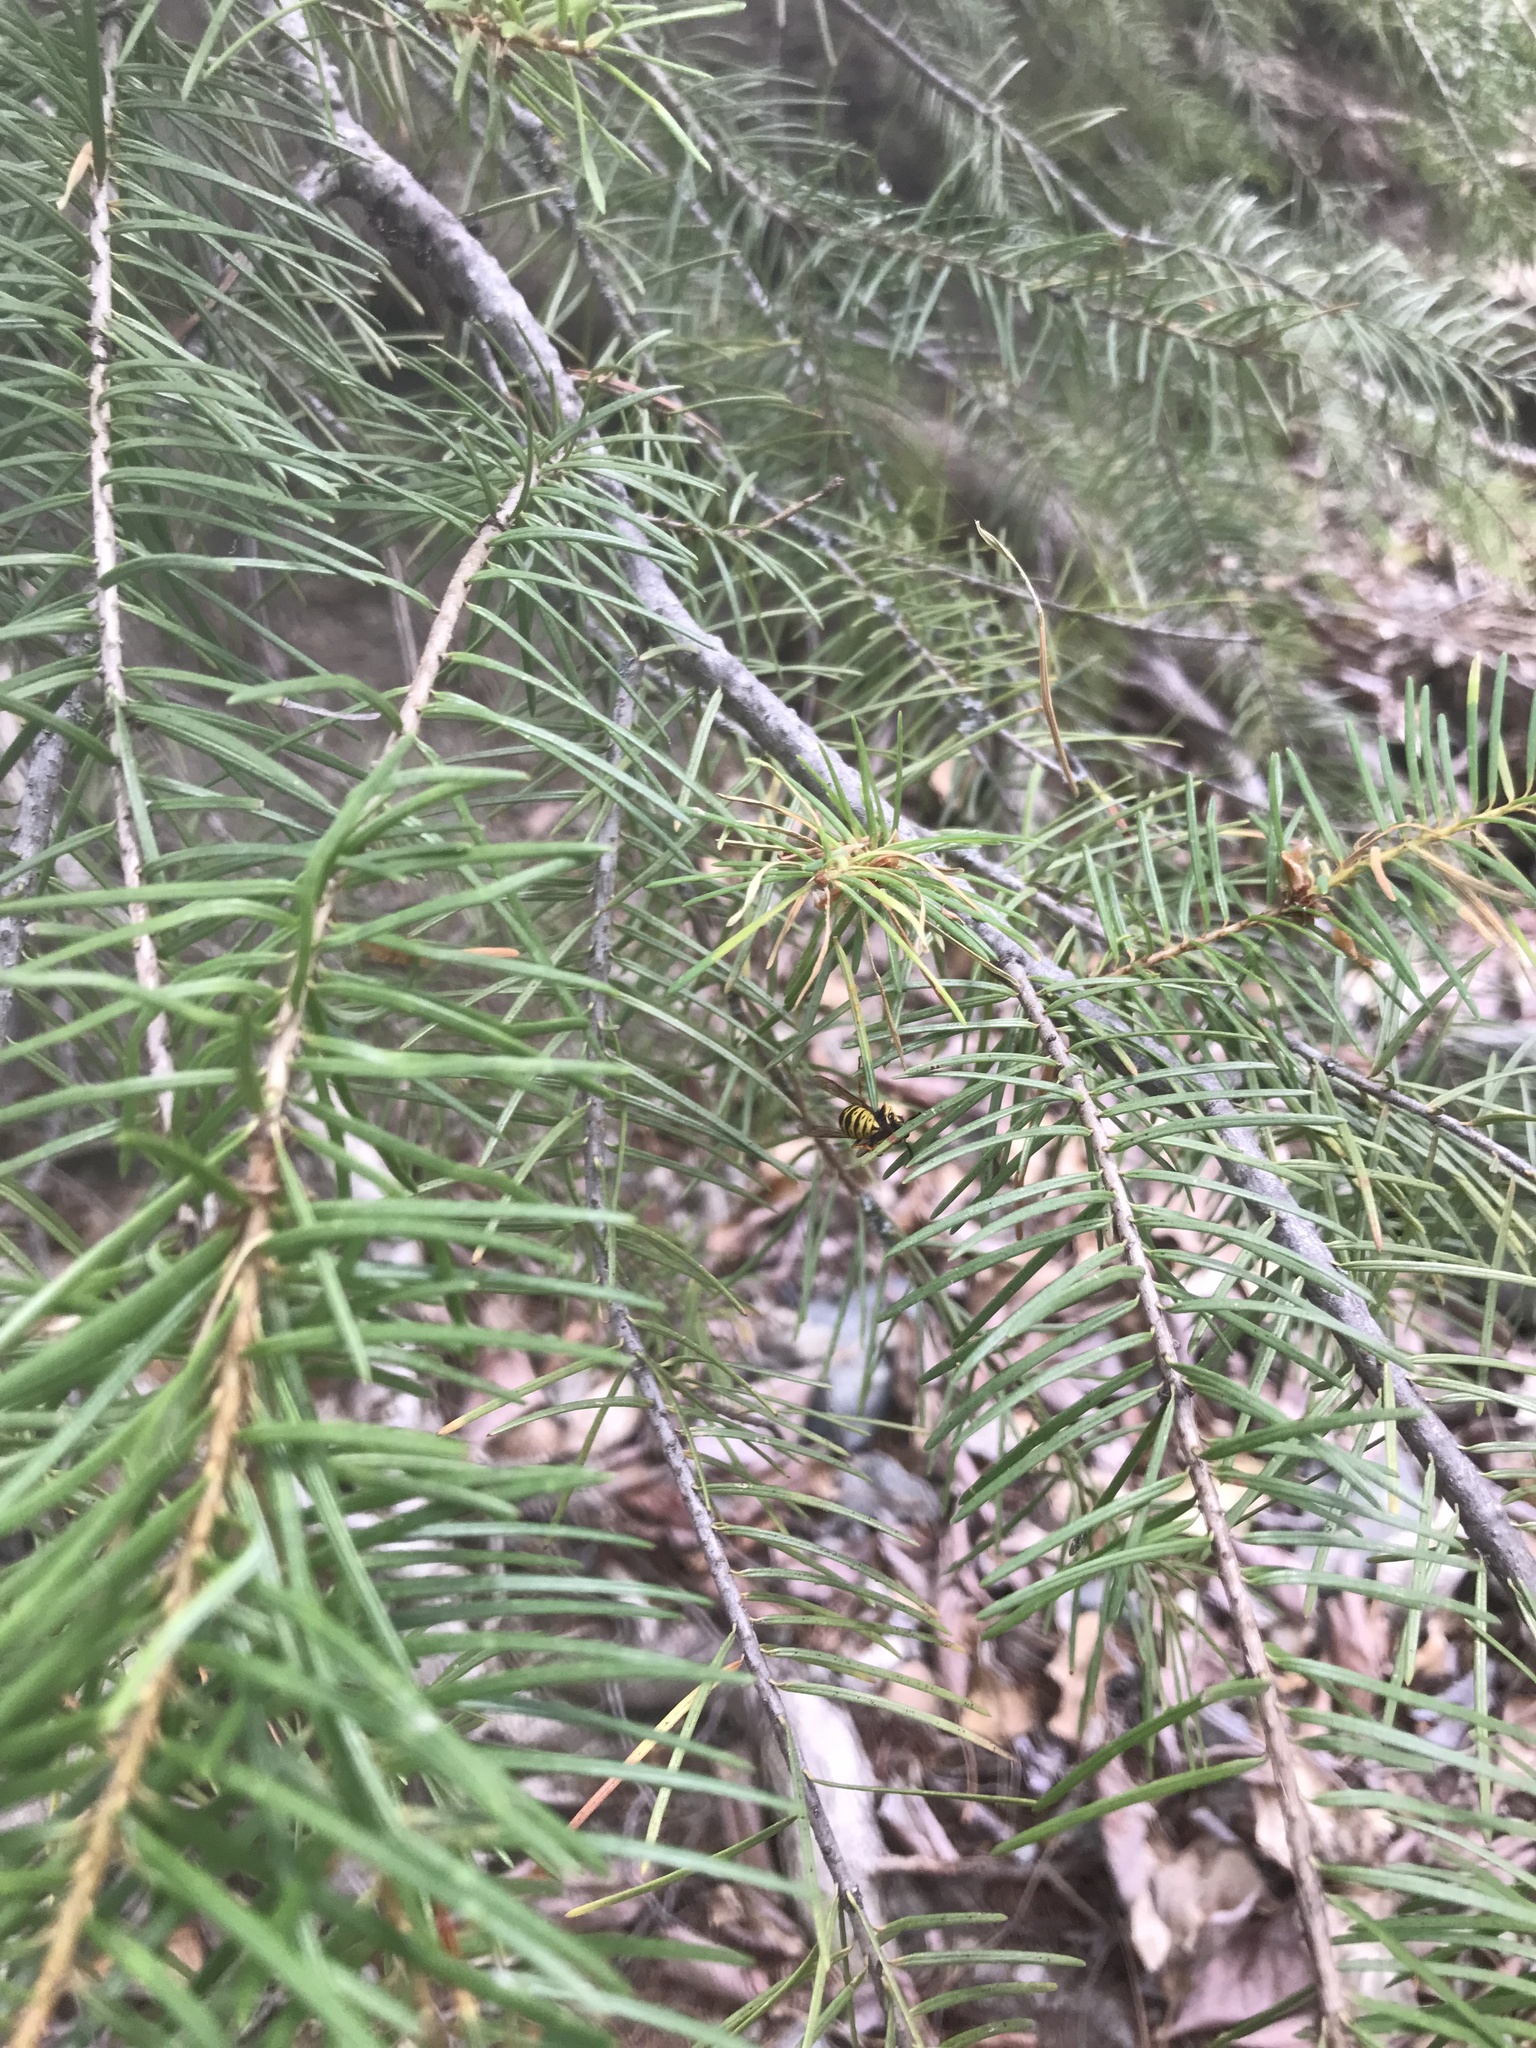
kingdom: Animalia
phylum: Arthropoda
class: Insecta
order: Hymenoptera
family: Vespidae
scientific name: Vespidae
